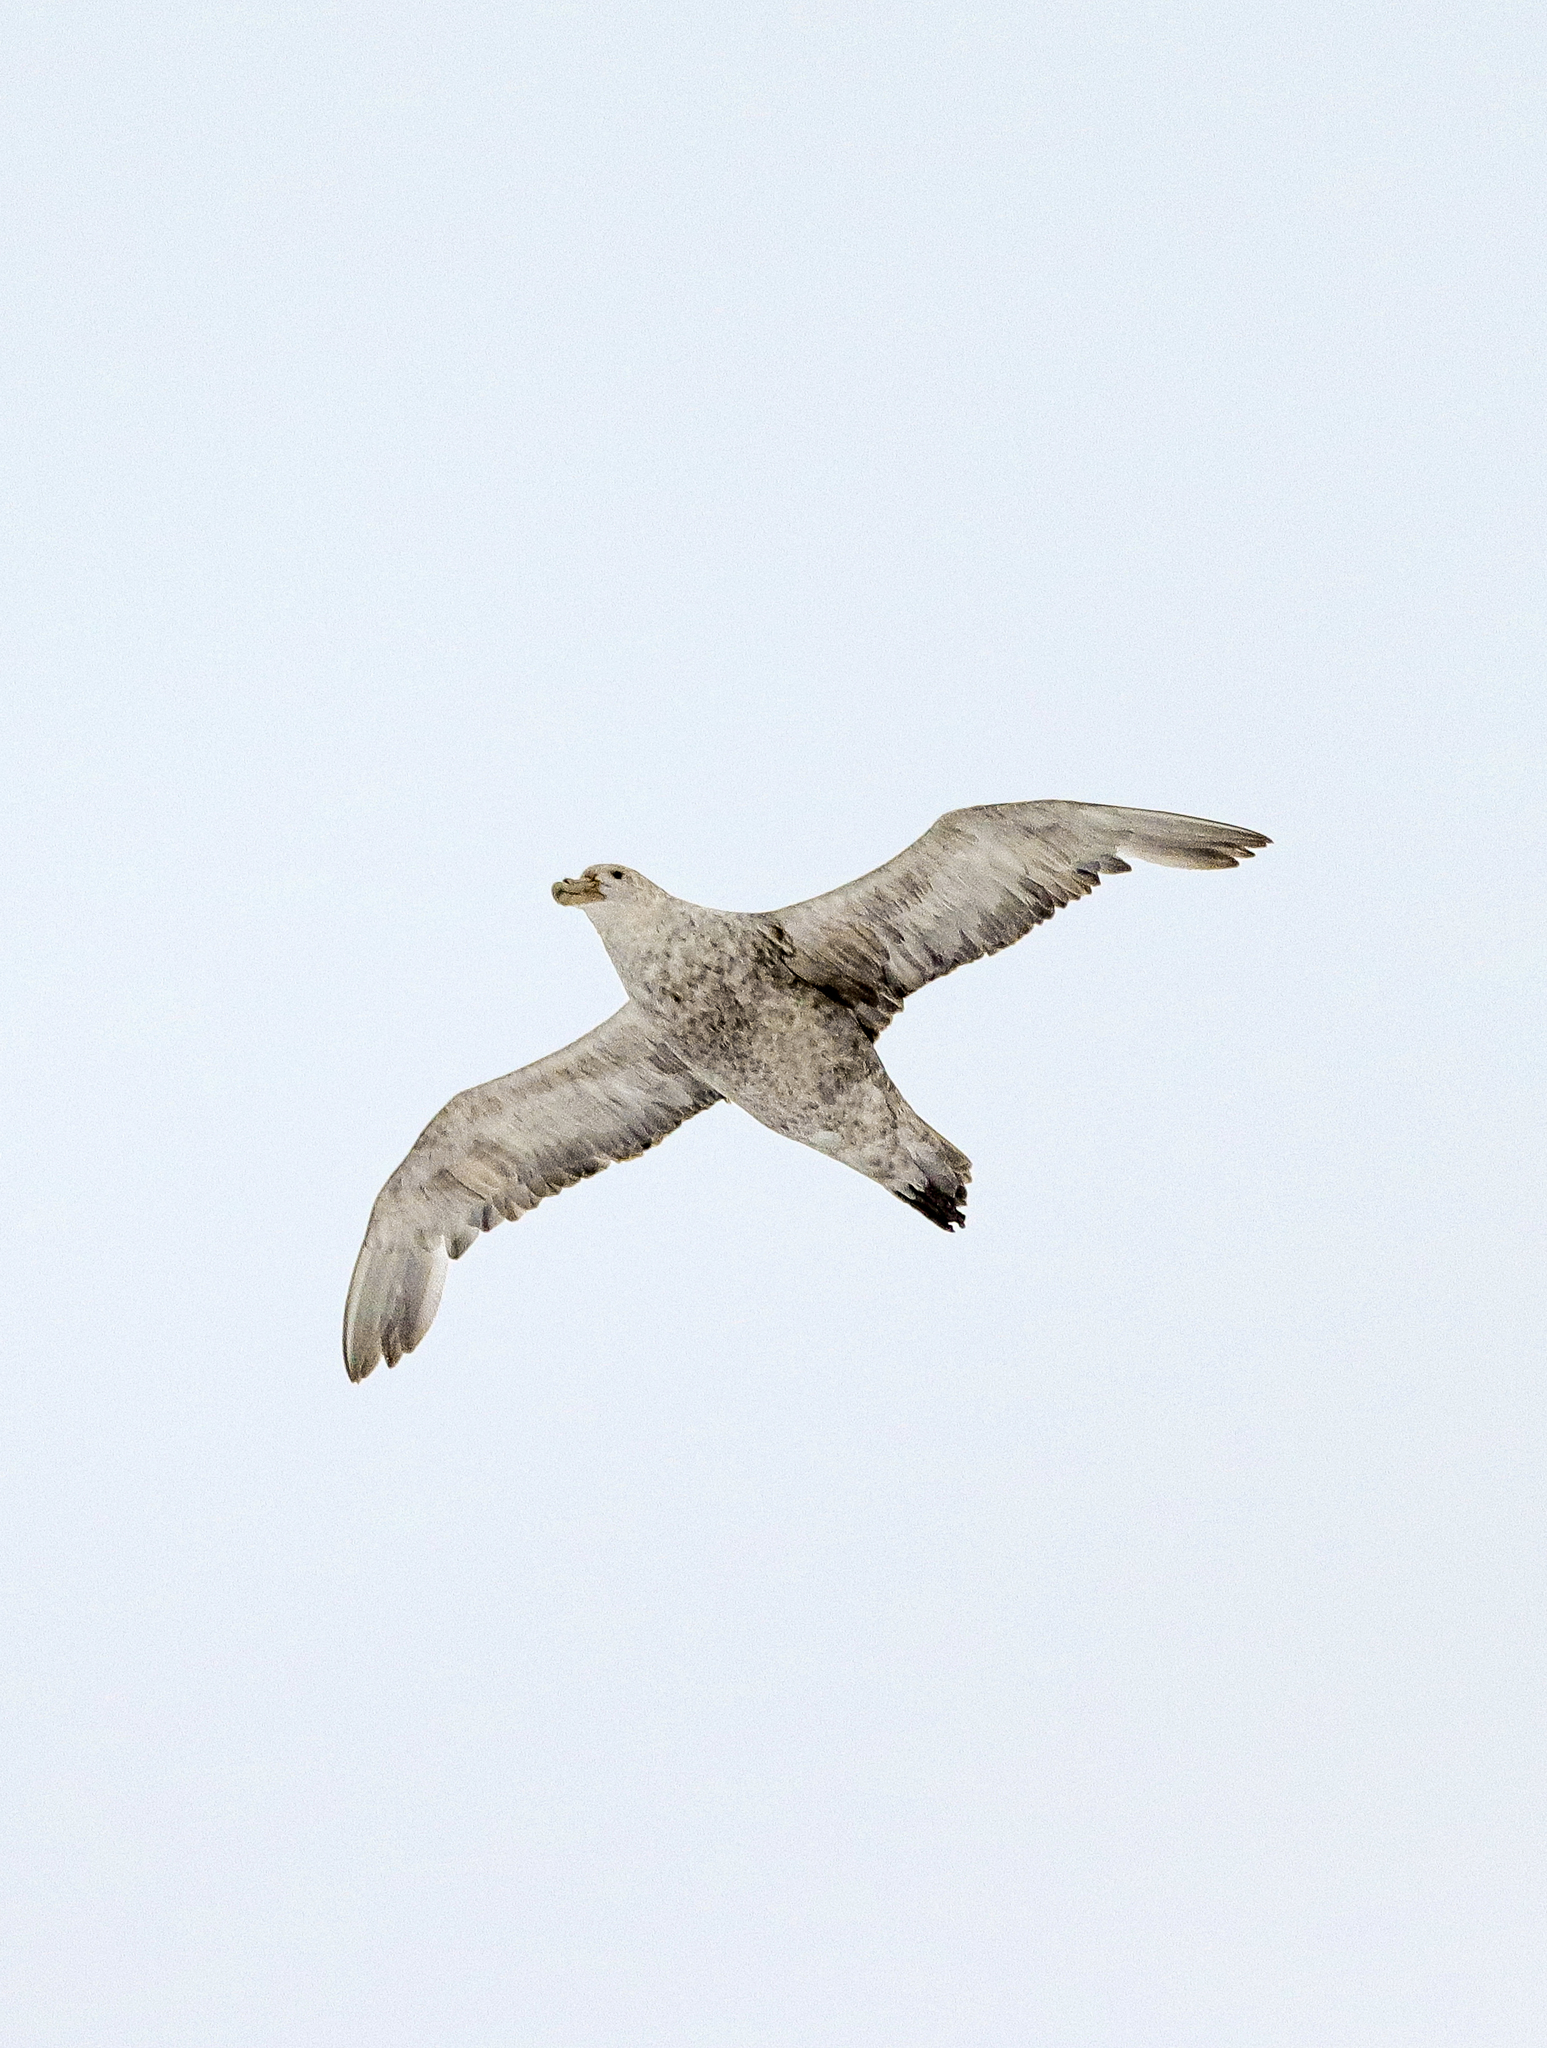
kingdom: Animalia
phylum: Chordata
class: Aves
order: Procellariiformes
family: Procellariidae
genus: Macronectes
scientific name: Macronectes giganteus
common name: Southern giant petrel
